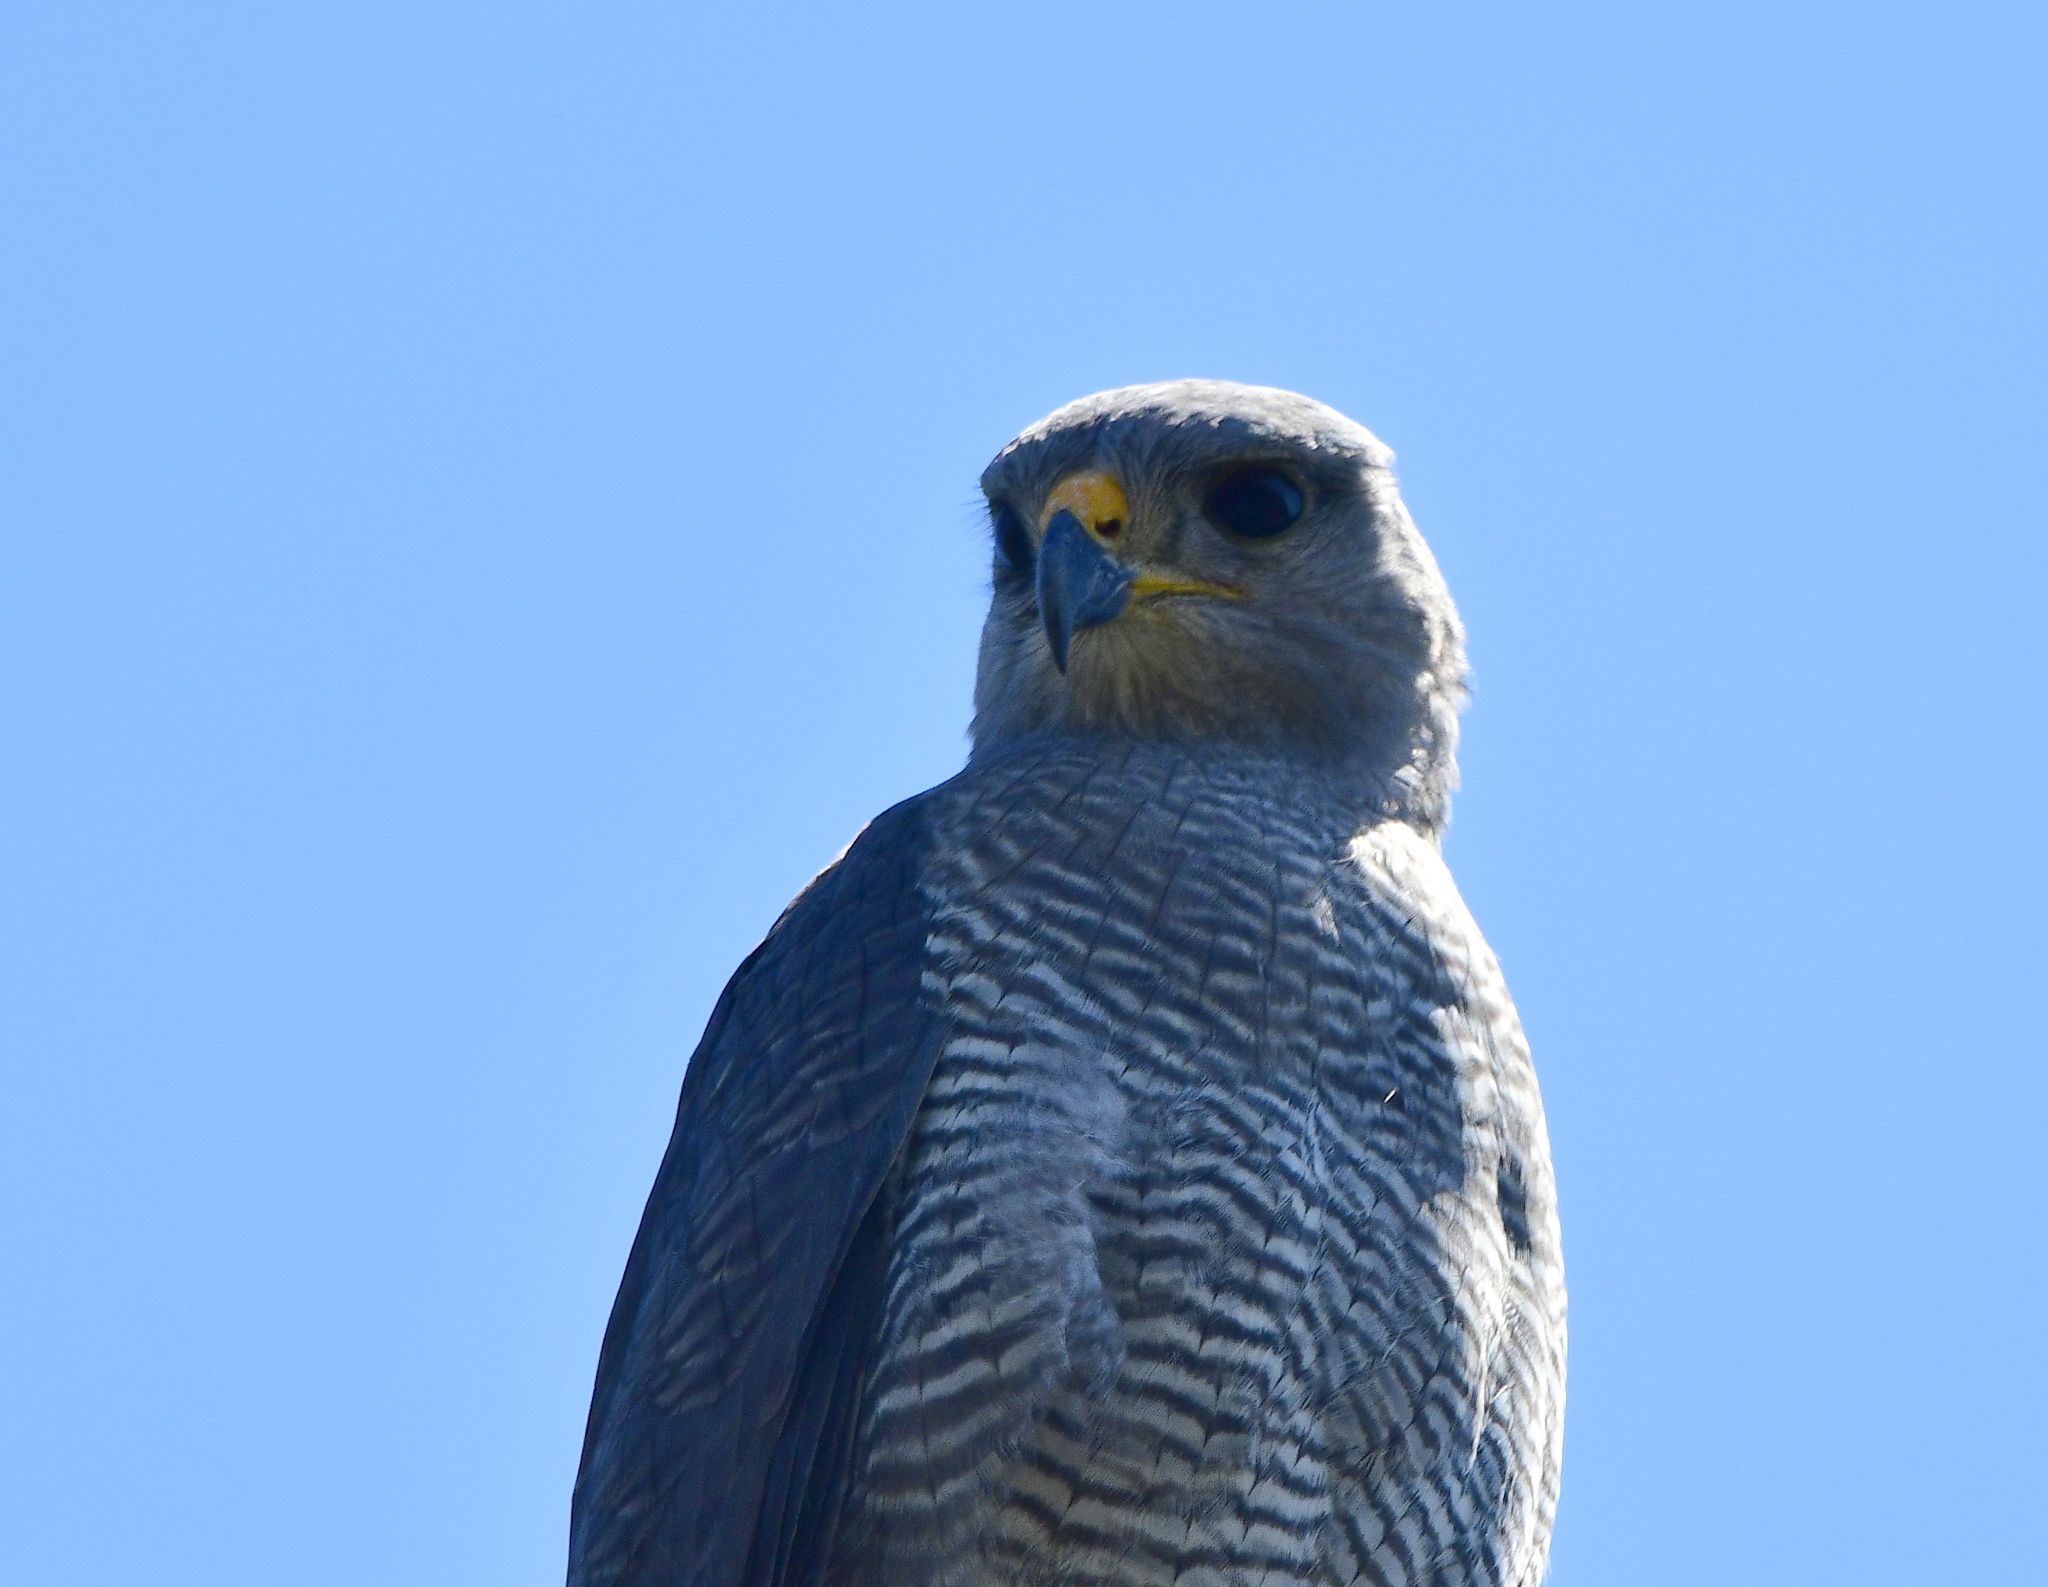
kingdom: Animalia
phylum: Chordata
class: Aves
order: Accipitriformes
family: Accipitridae
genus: Buteo
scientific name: Buteo nitidus
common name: Grey-lined hawk
